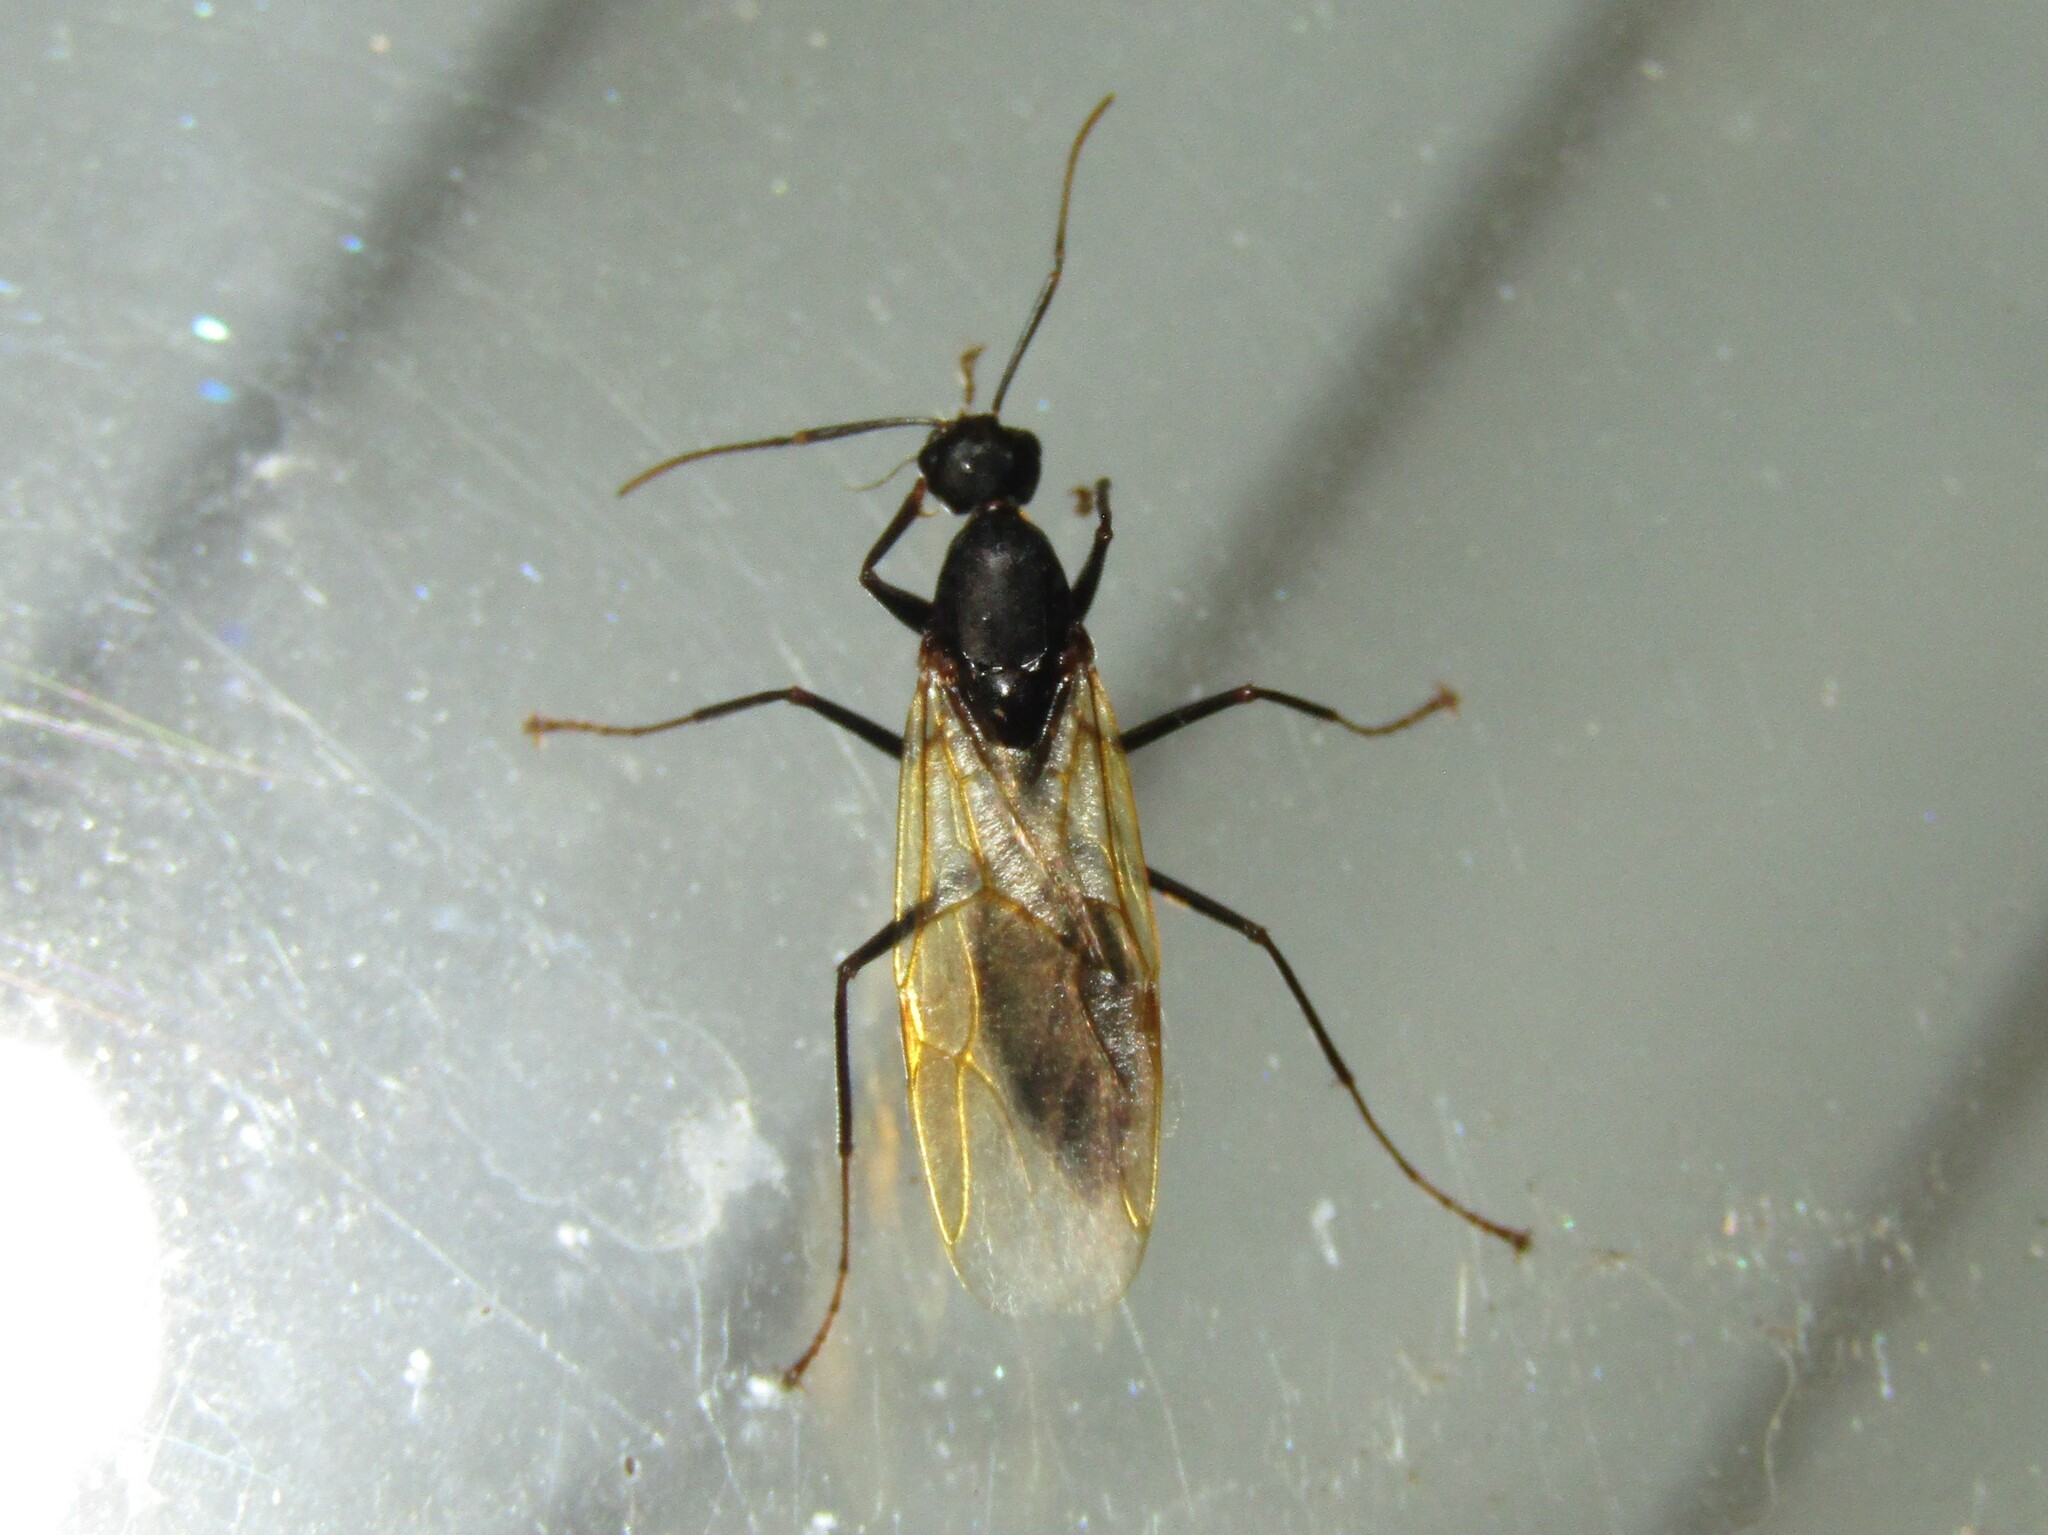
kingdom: Animalia
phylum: Arthropoda
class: Insecta
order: Hymenoptera
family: Formicidae
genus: Camponotus
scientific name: Camponotus pennsylvanicus
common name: Black carpenter ant
